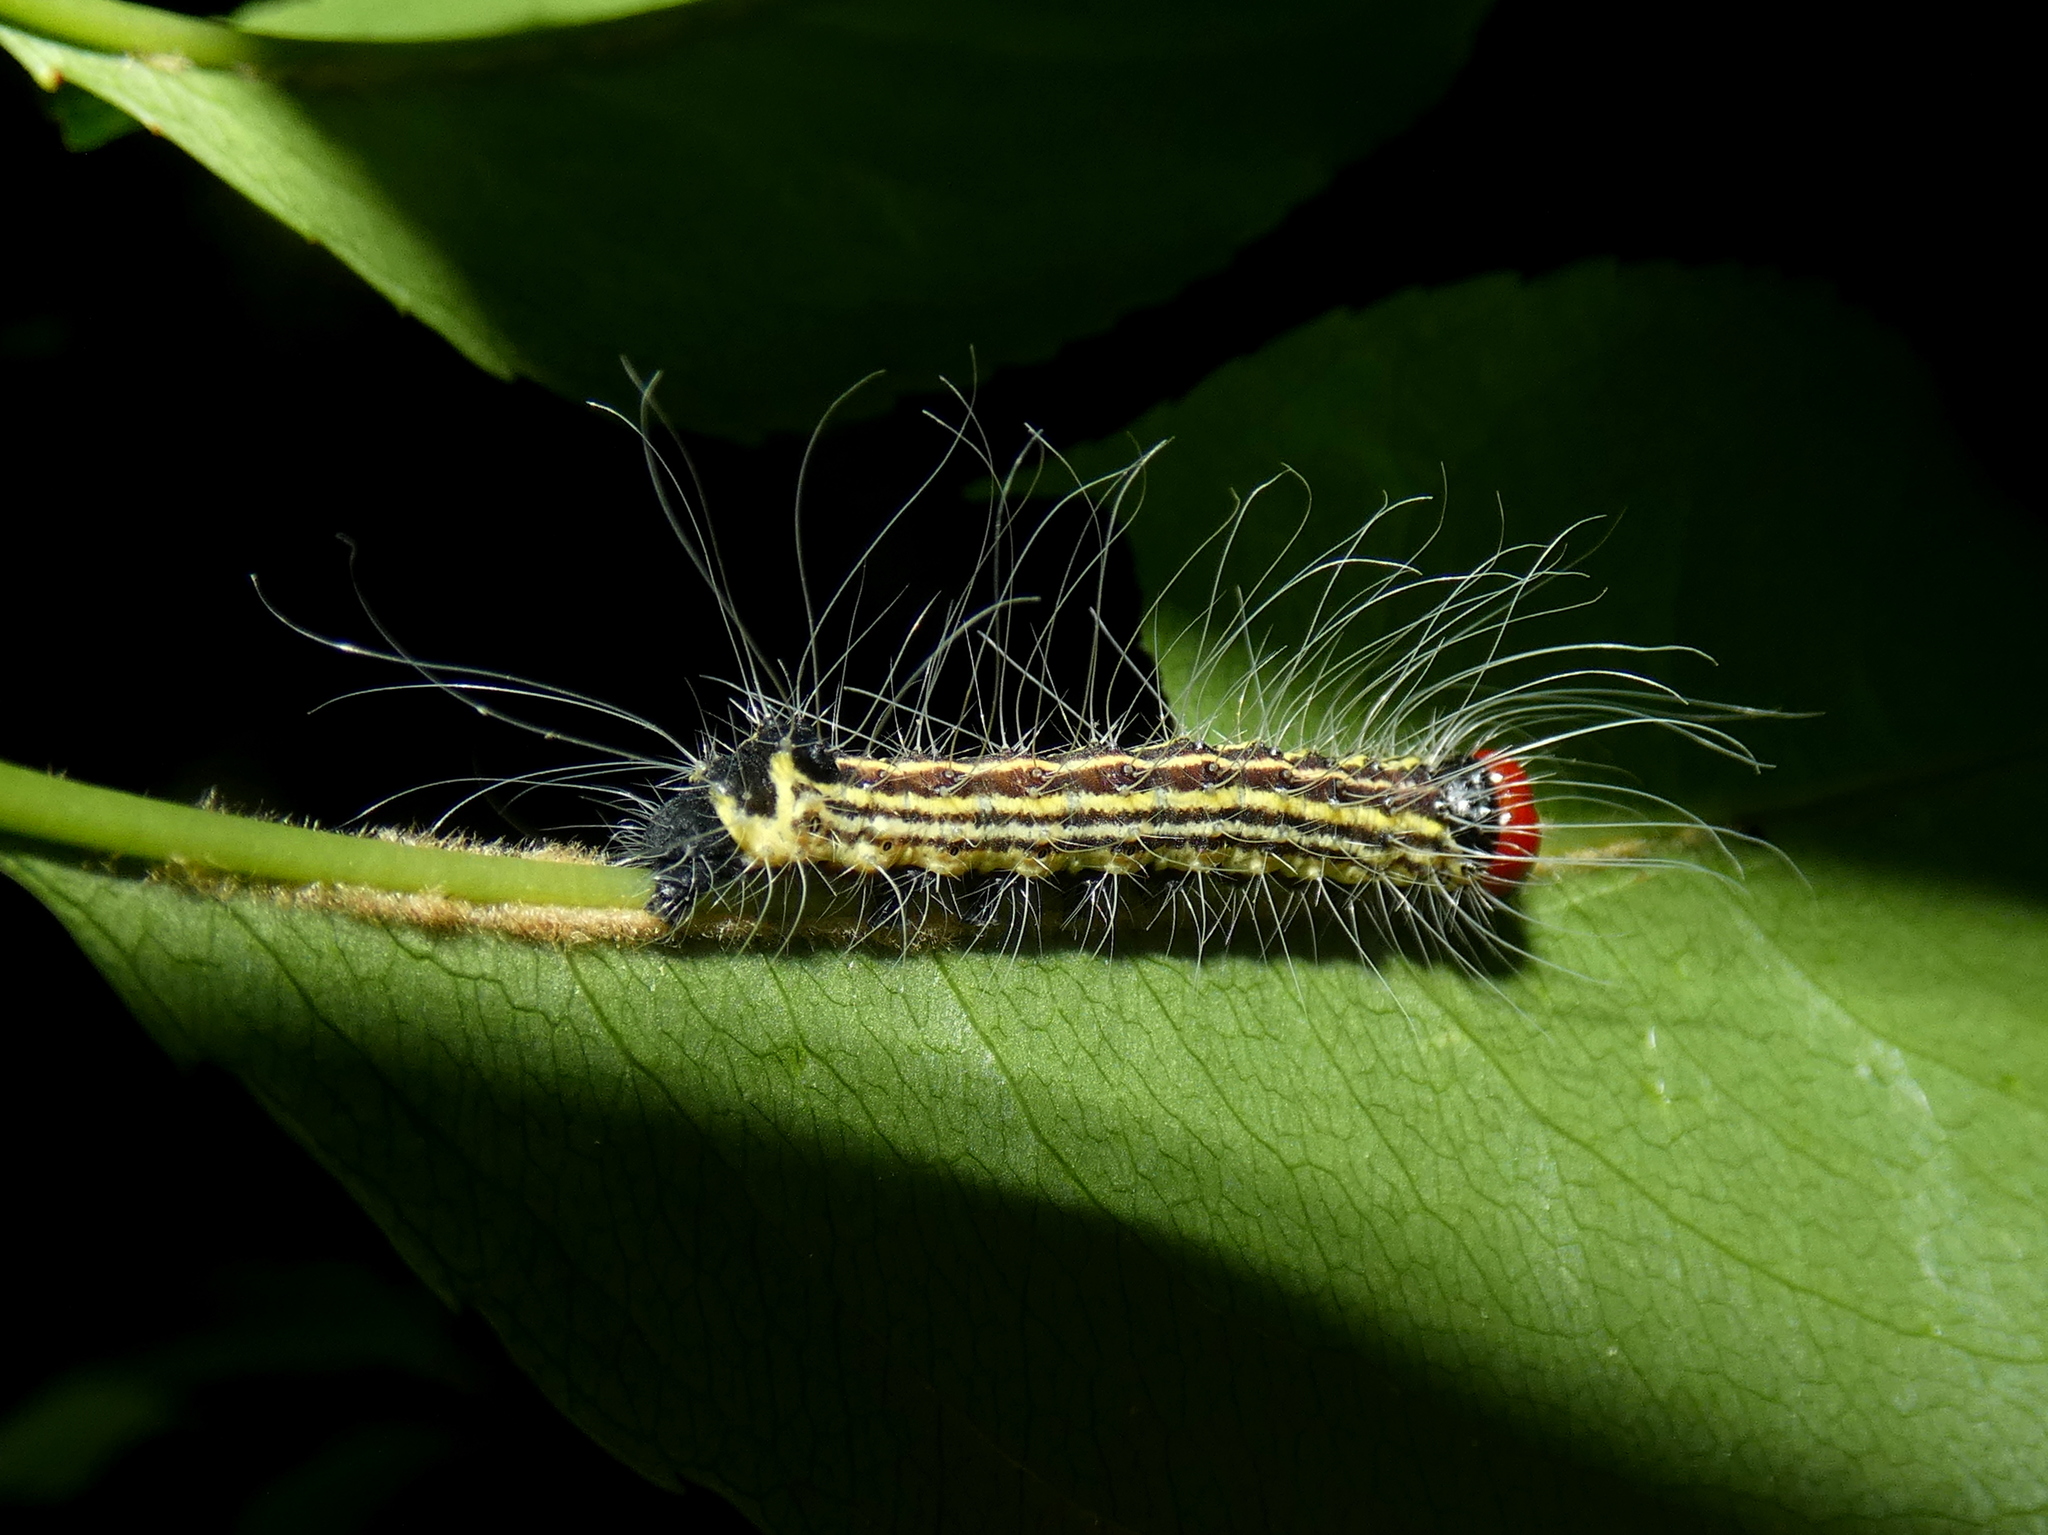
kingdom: Animalia
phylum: Arthropoda
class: Insecta
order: Lepidoptera
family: Noctuidae
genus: Acronicta
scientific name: Acronicta radcliffei
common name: Radcliffe's dagger
